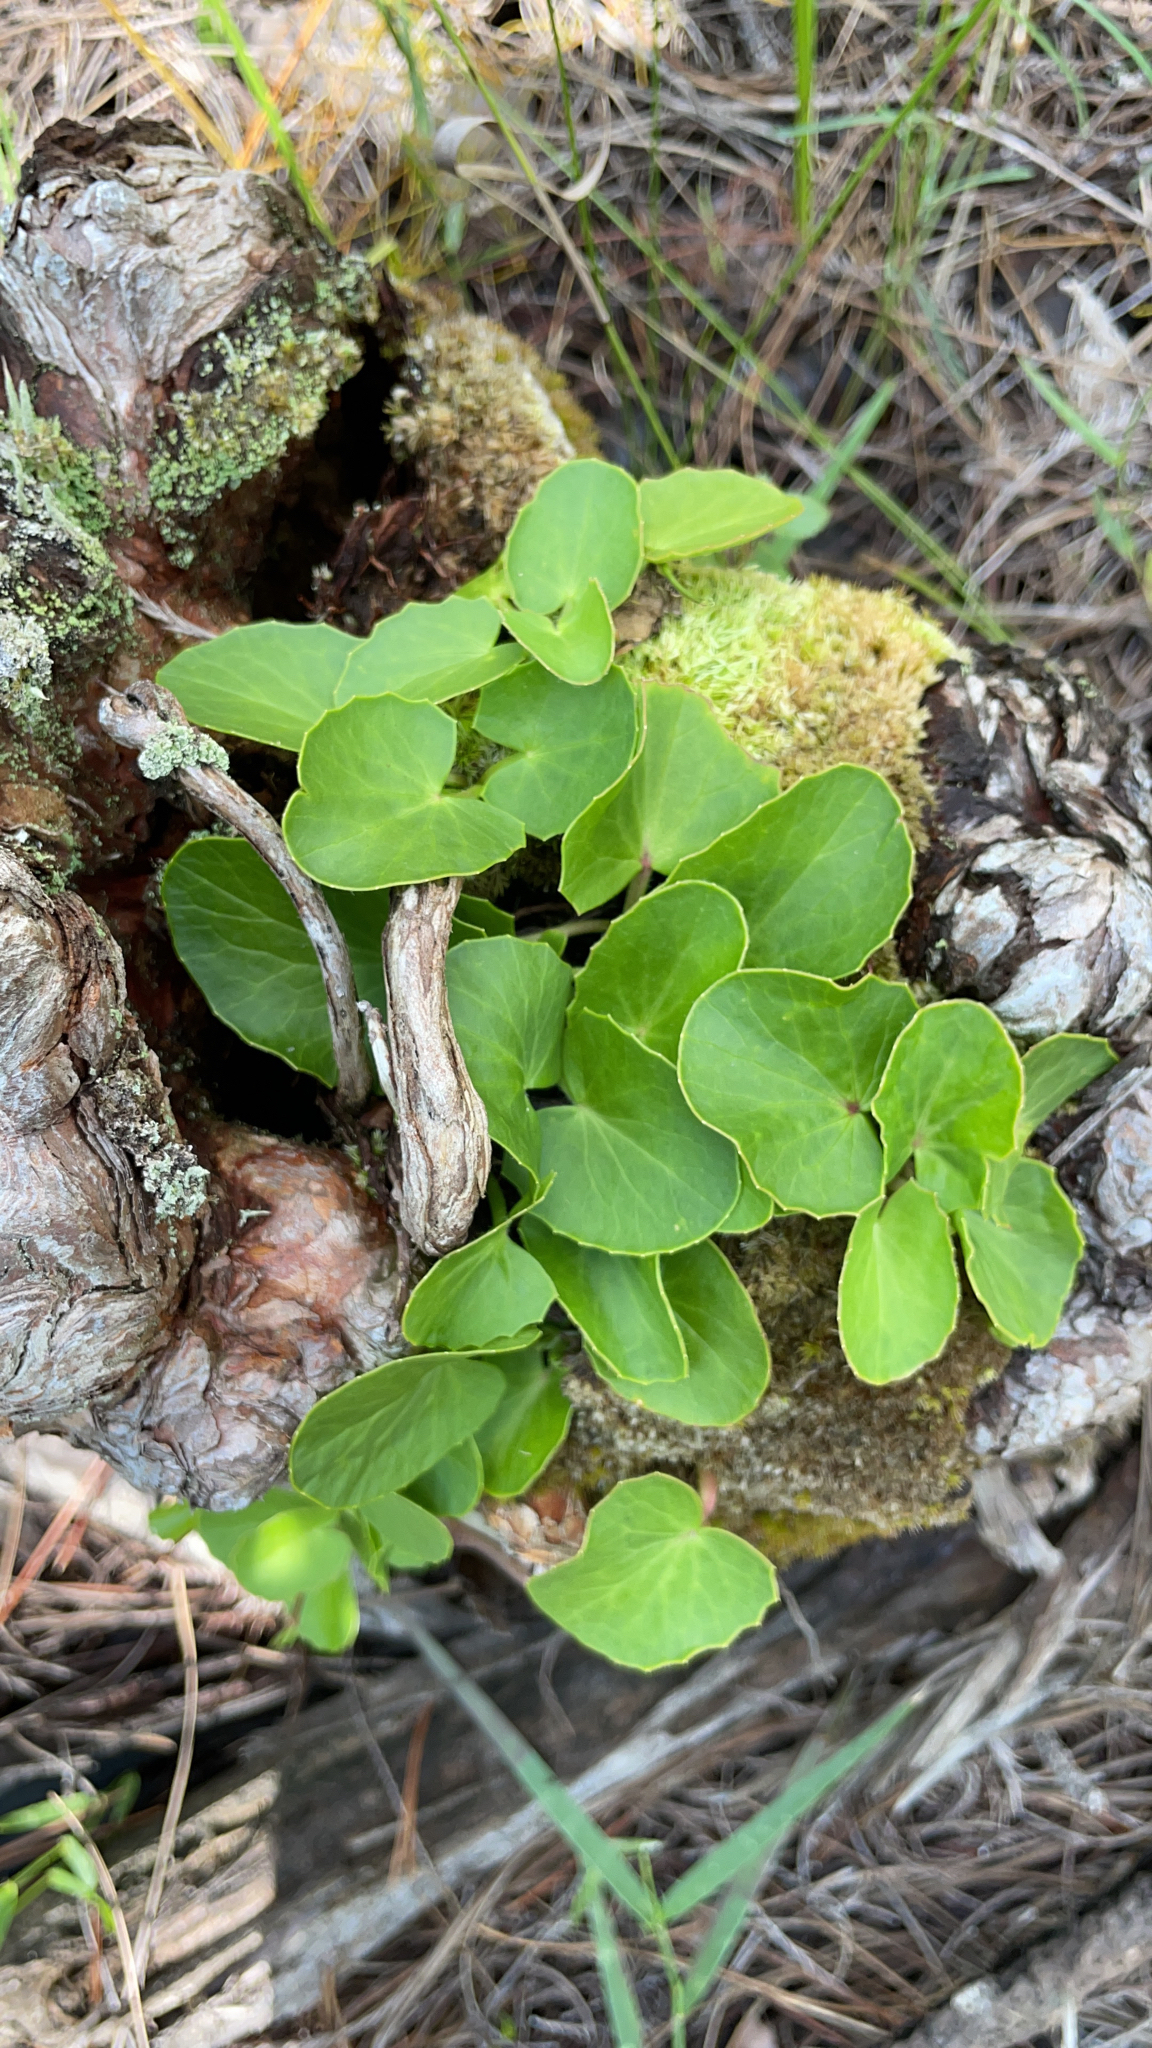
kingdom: Plantae
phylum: Tracheophyta
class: Magnoliopsida
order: Apiales
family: Apiaceae
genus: Centella
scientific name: Centella erecta
